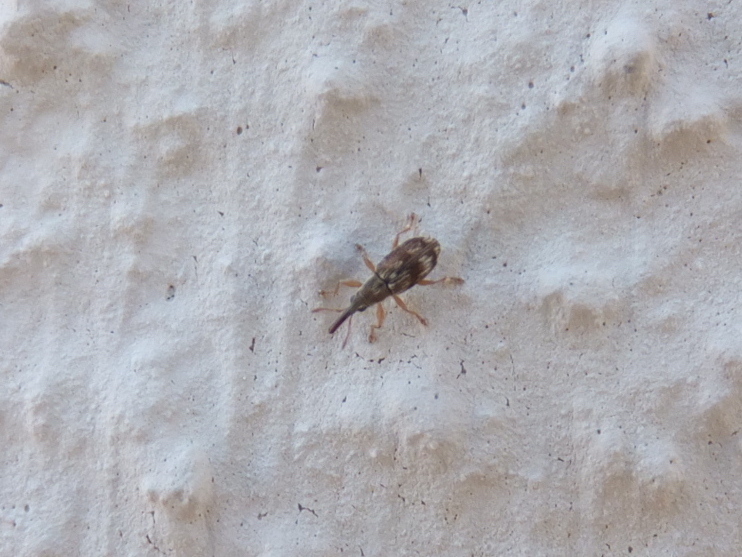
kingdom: Animalia
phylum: Arthropoda
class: Insecta
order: Coleoptera
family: Apionidae
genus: Taeniapion
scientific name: Taeniapion urticarium
